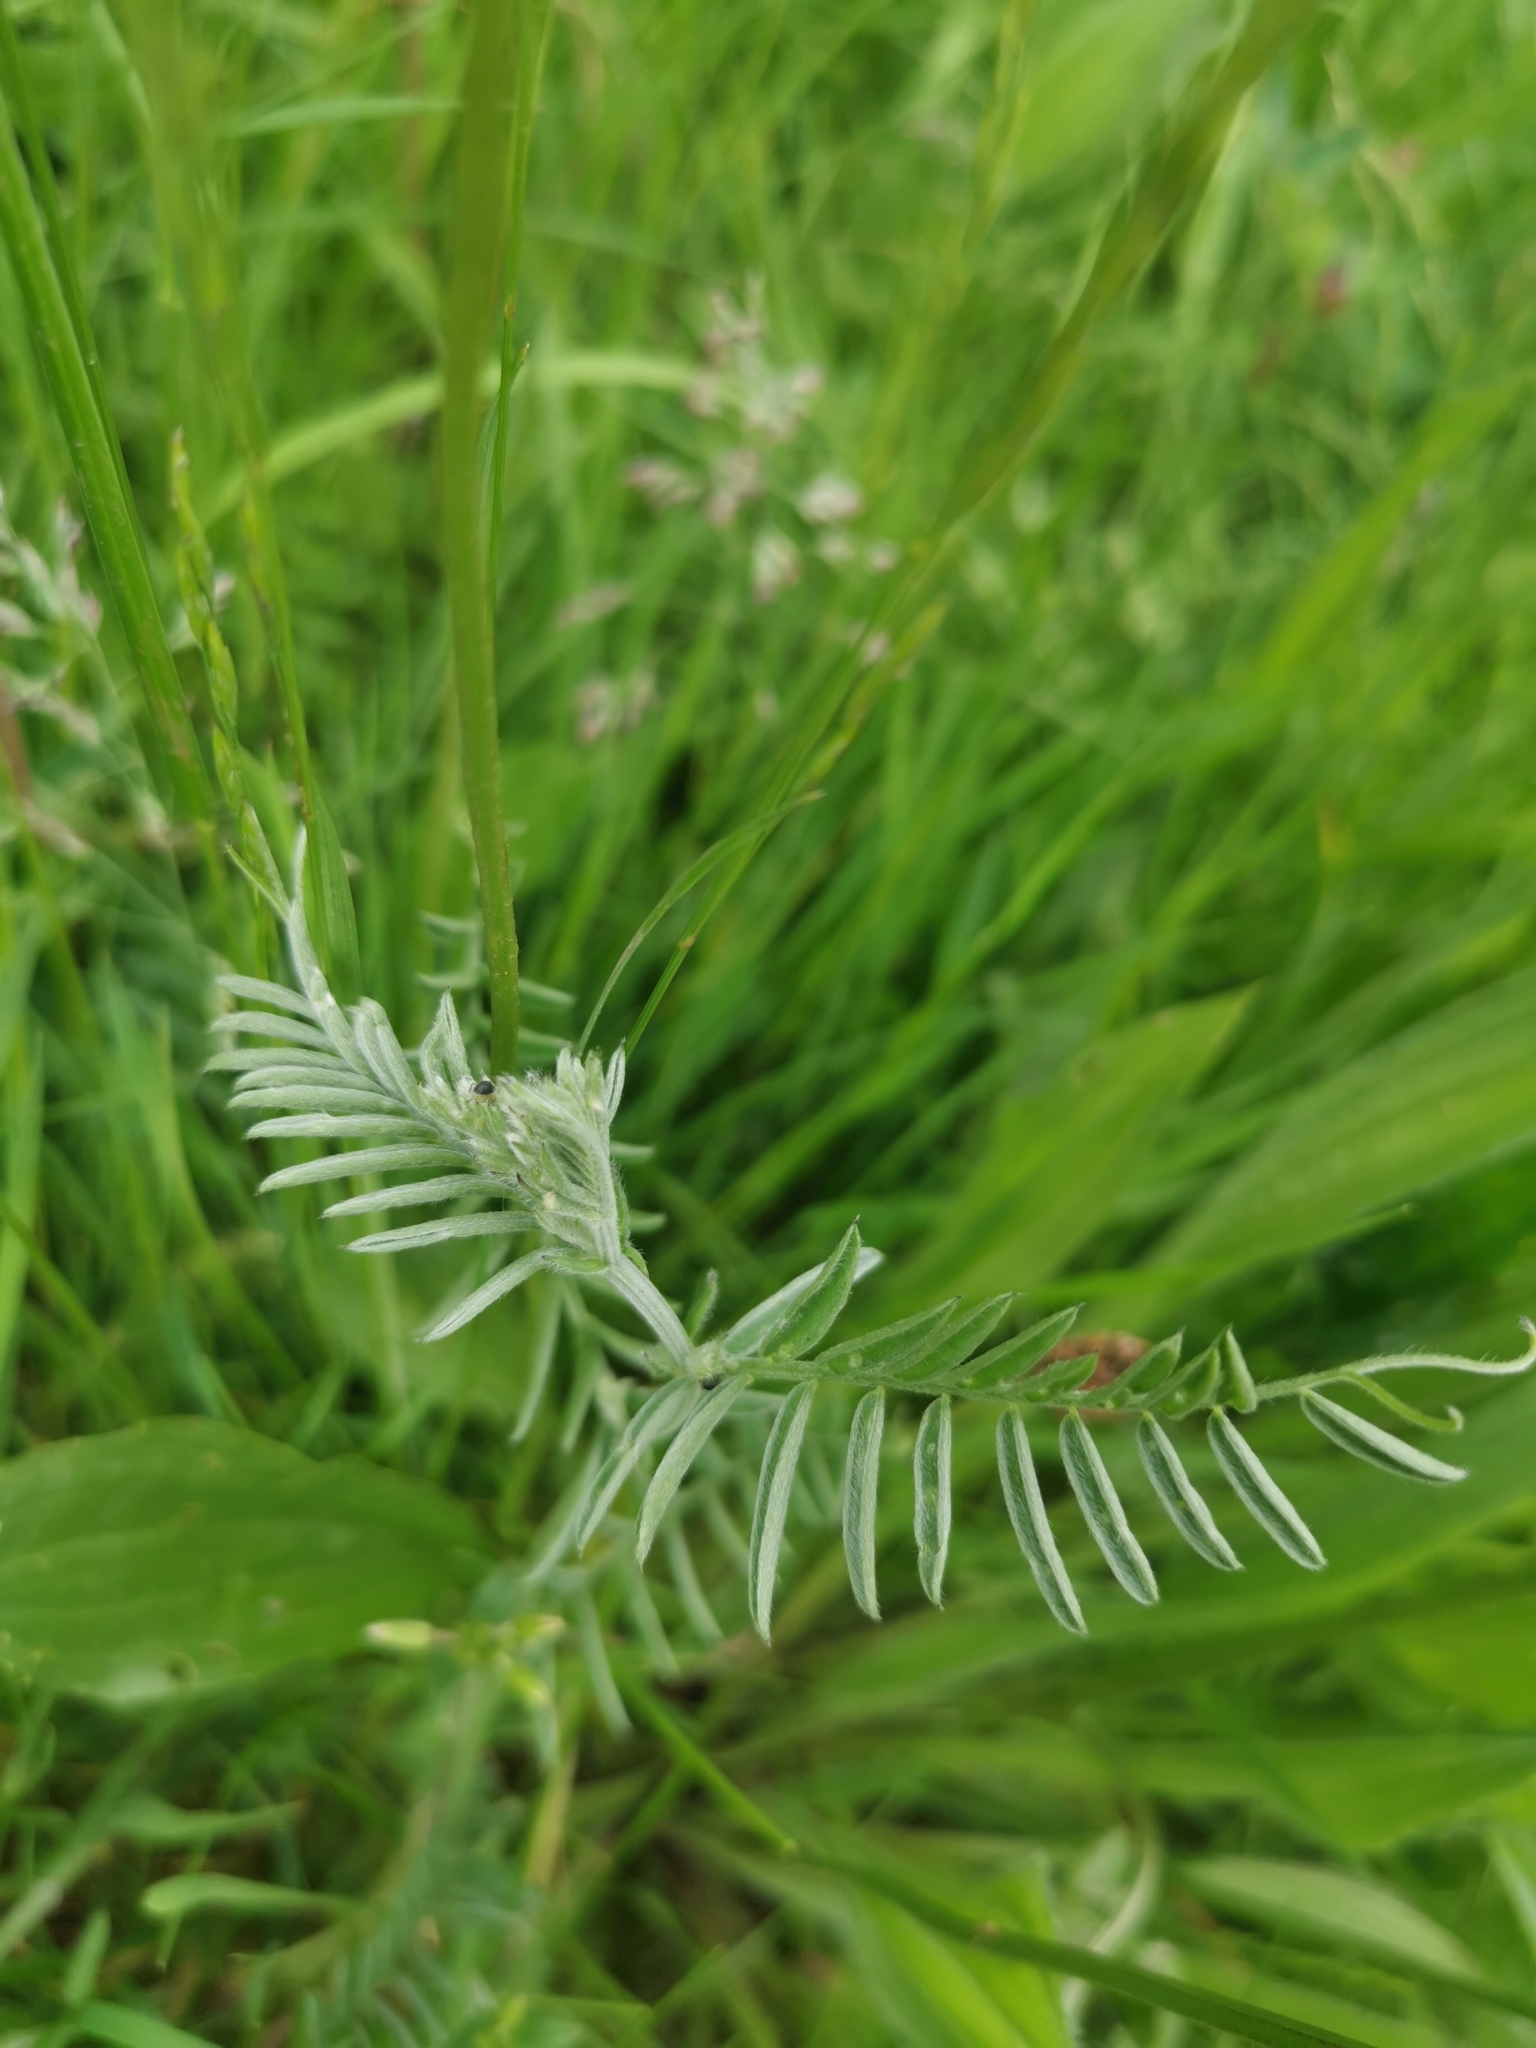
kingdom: Plantae
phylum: Tracheophyta
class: Magnoliopsida
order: Fabales
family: Fabaceae
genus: Vicia
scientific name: Vicia cracca
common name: Bird vetch
